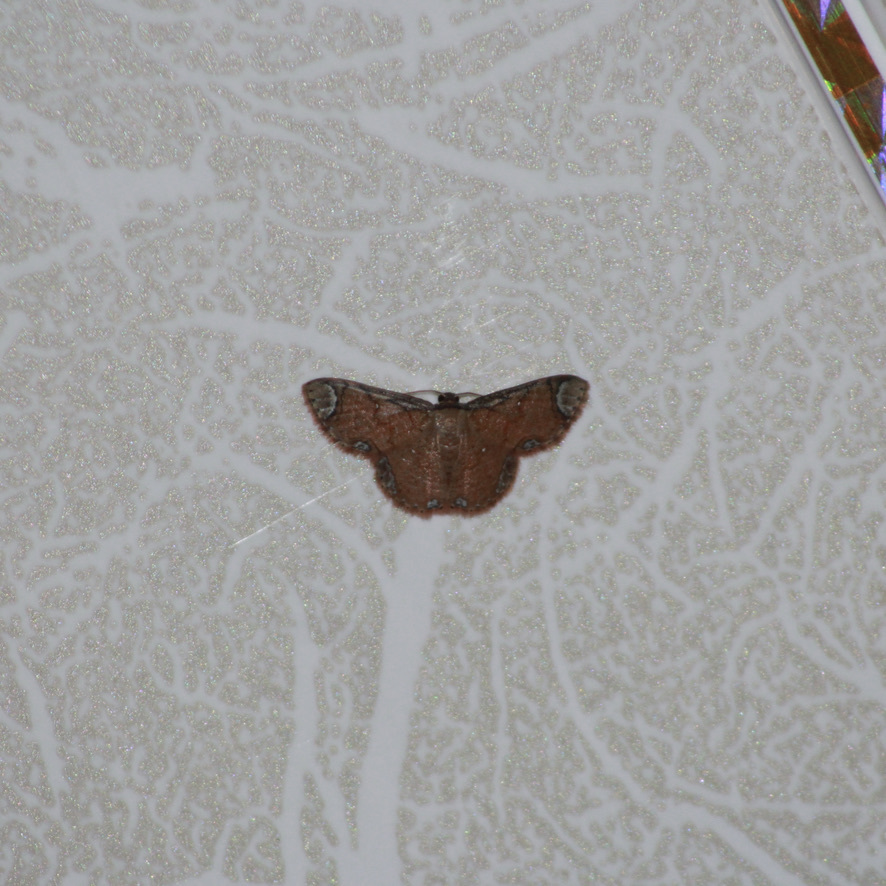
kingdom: Animalia
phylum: Arthropoda
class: Insecta
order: Lepidoptera
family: Geometridae
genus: Lipotaxia
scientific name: Lipotaxia rubicunda
